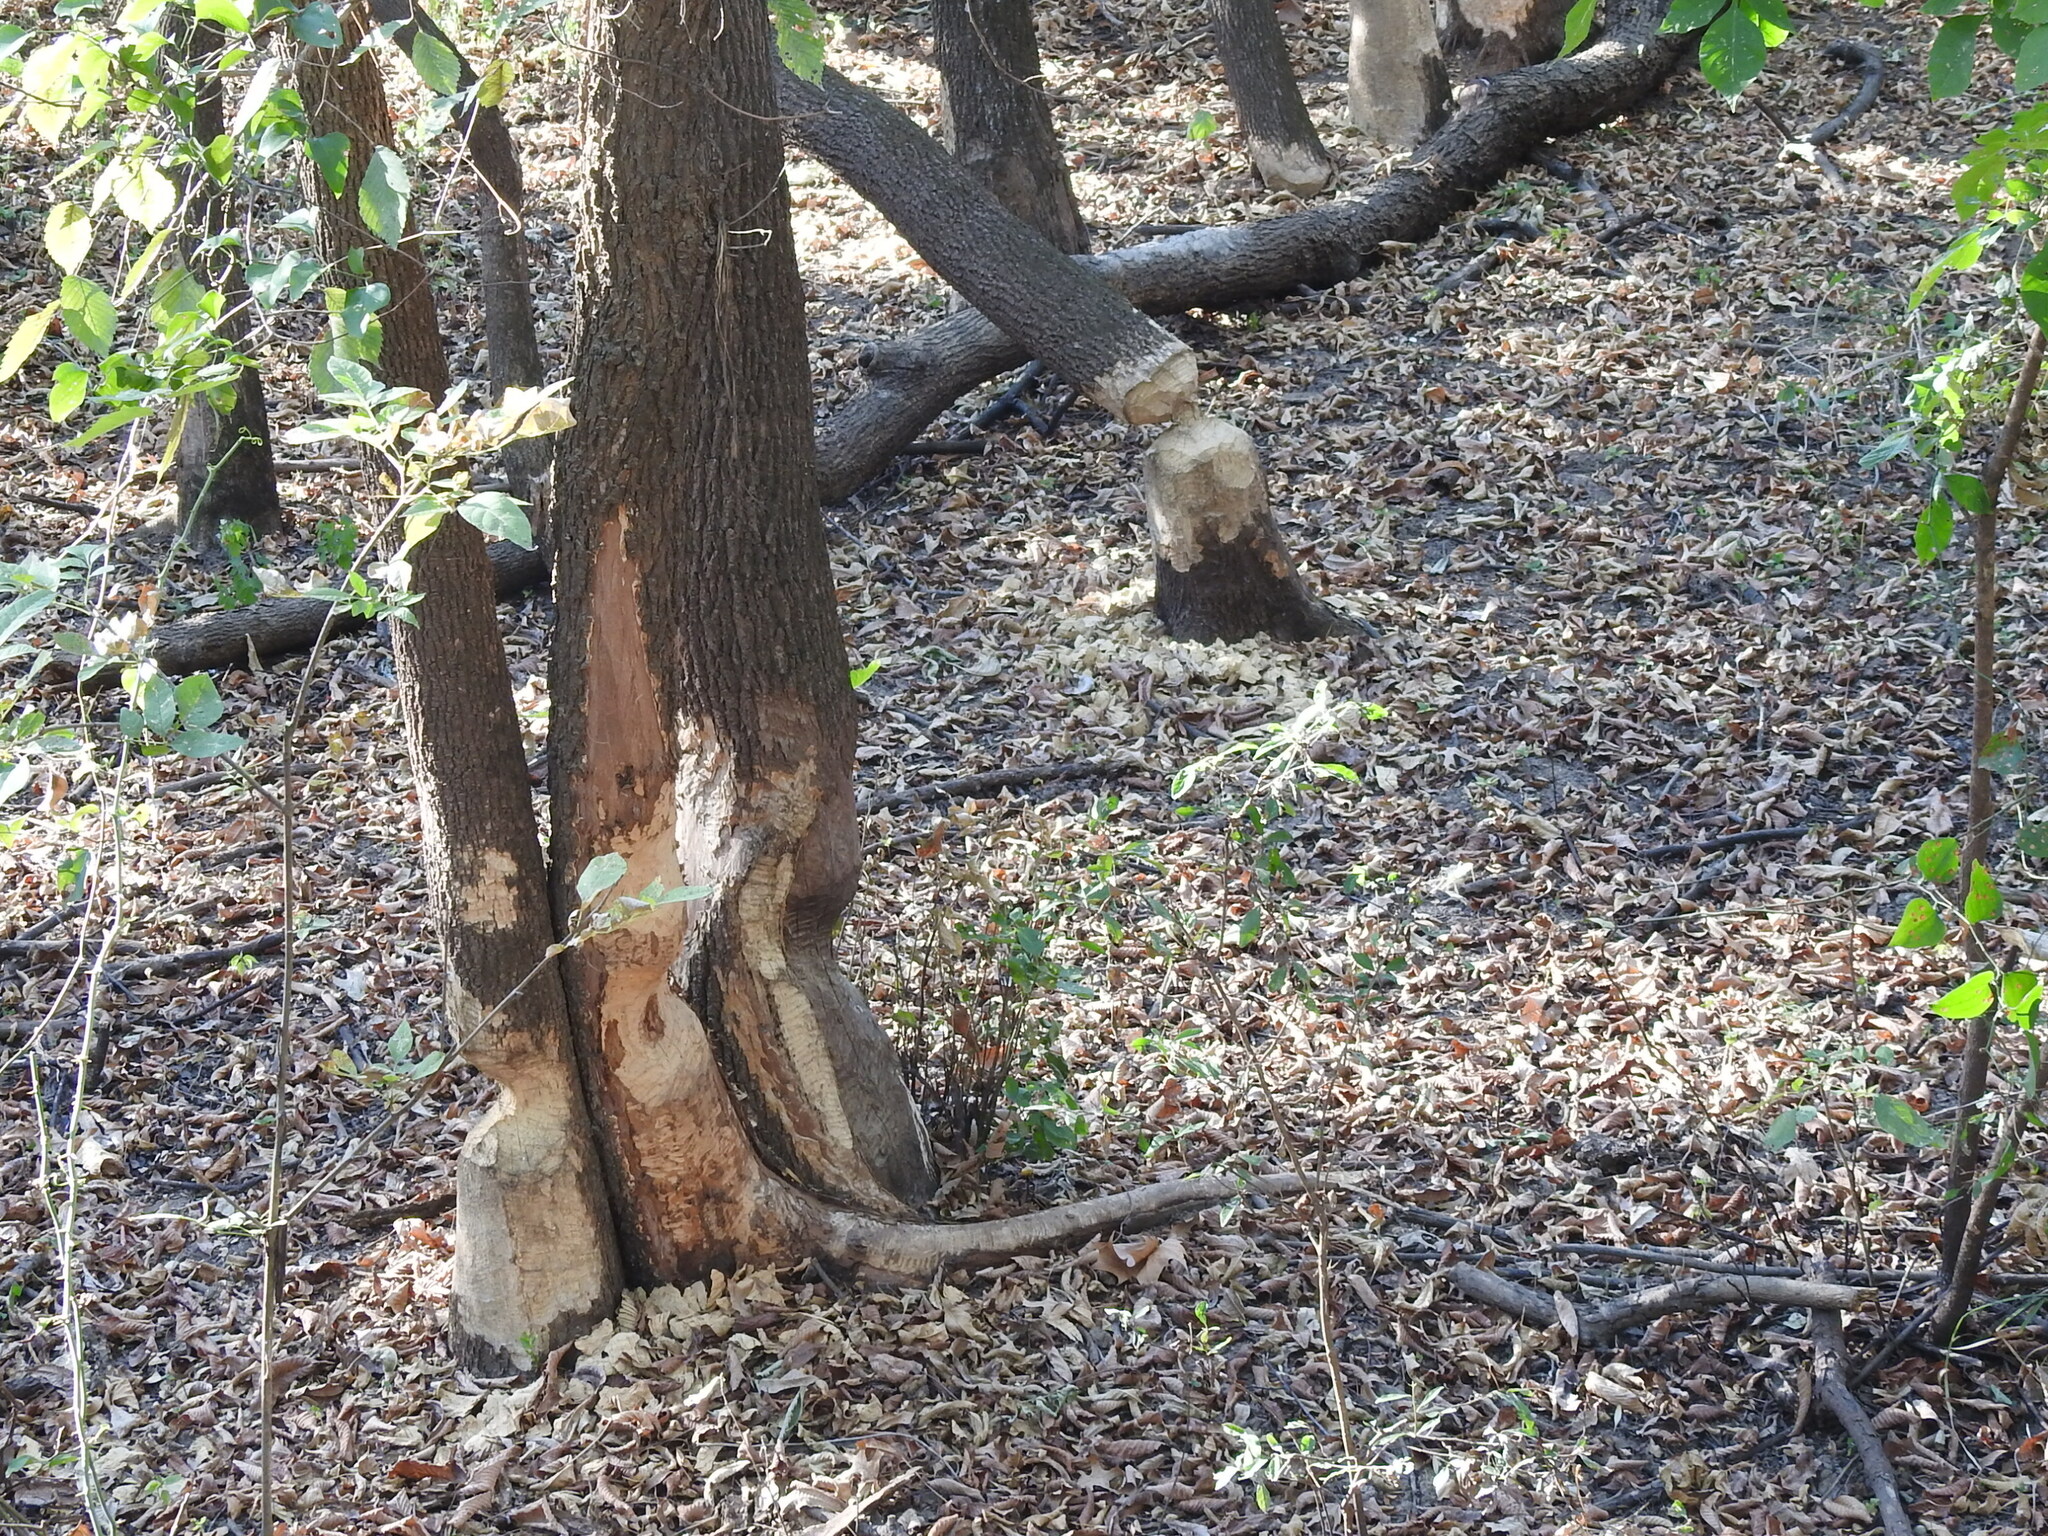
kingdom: Animalia
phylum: Chordata
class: Mammalia
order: Rodentia
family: Castoridae
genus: Castor
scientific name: Castor canadensis
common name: American beaver
